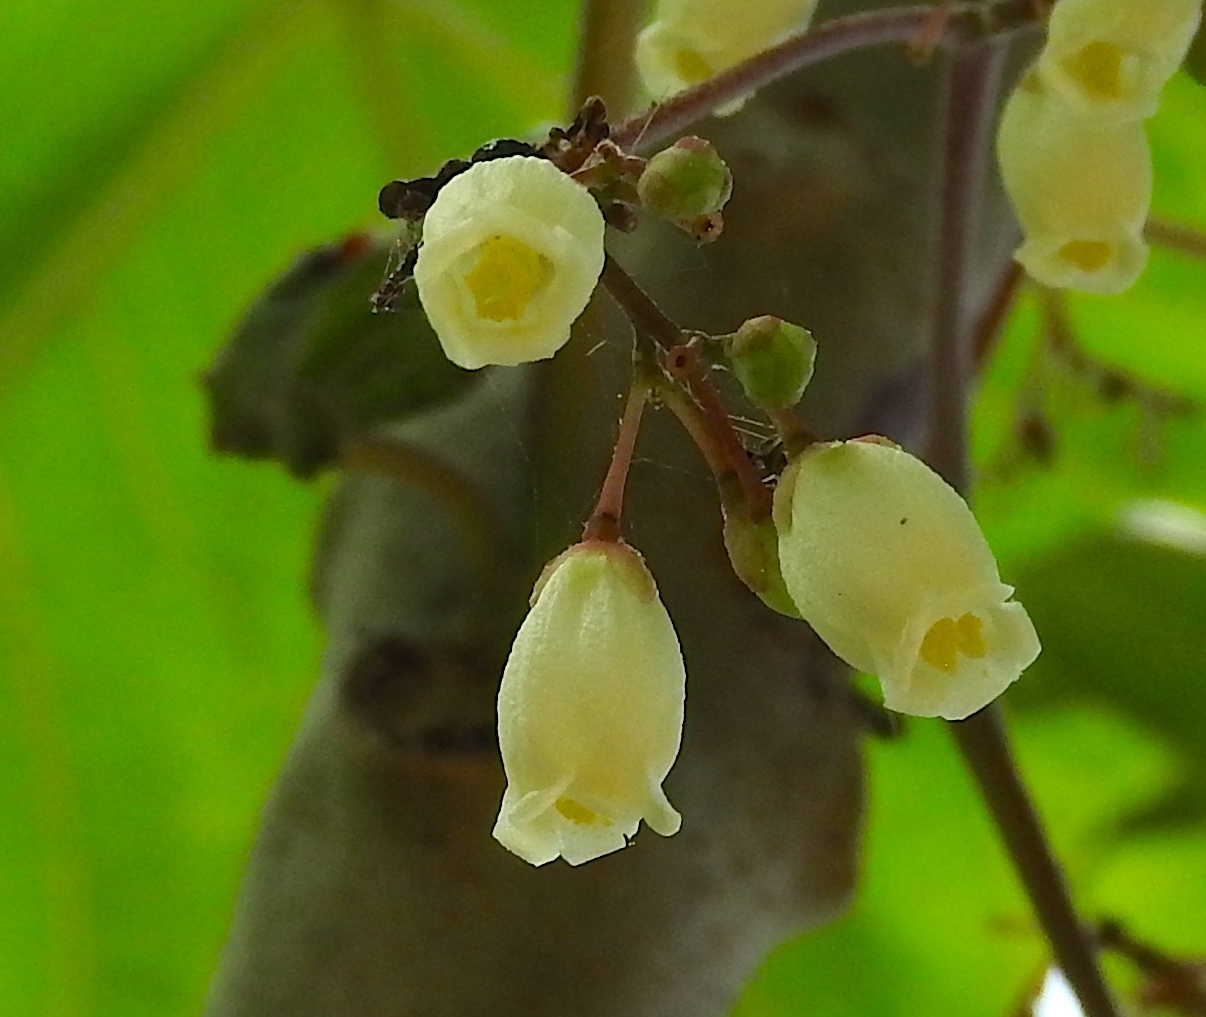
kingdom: Plantae
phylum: Tracheophyta
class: Magnoliopsida
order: Malpighiales
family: Euphorbiaceae
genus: Jatropha
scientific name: Jatropha peltata
